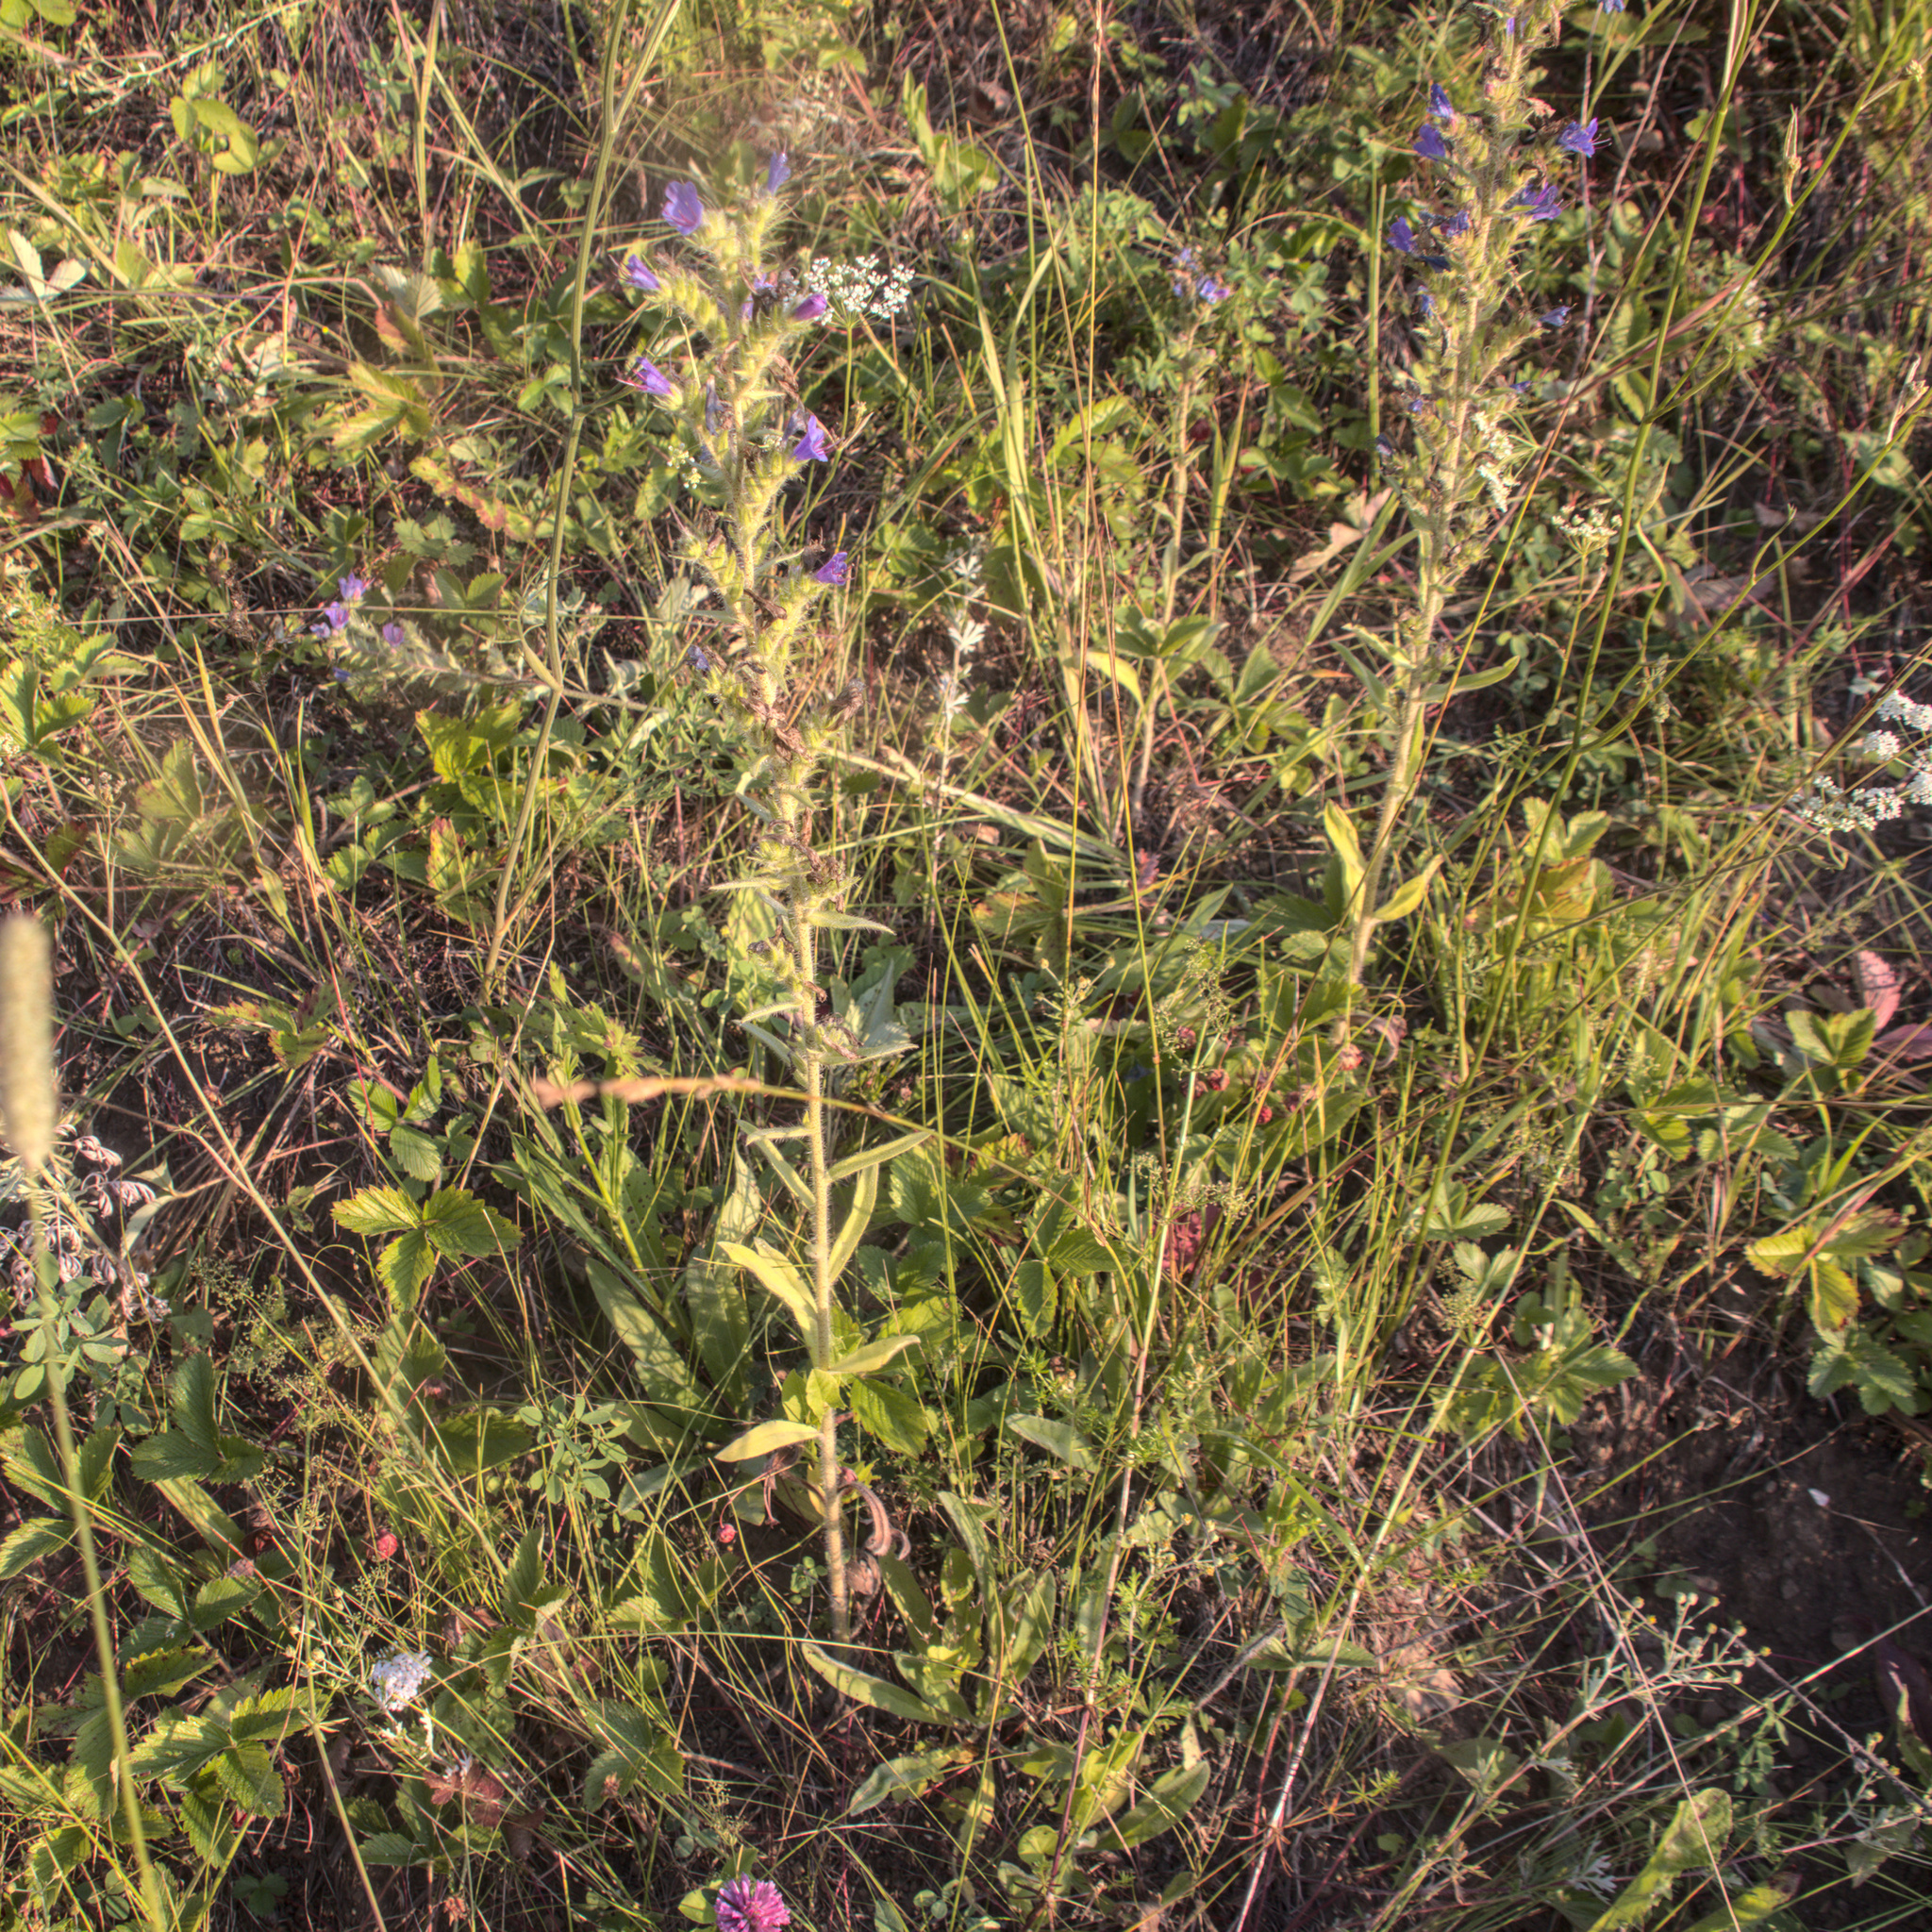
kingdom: Plantae
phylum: Tracheophyta
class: Magnoliopsida
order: Boraginales
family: Boraginaceae
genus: Echium
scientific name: Echium vulgare
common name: Common viper's bugloss
